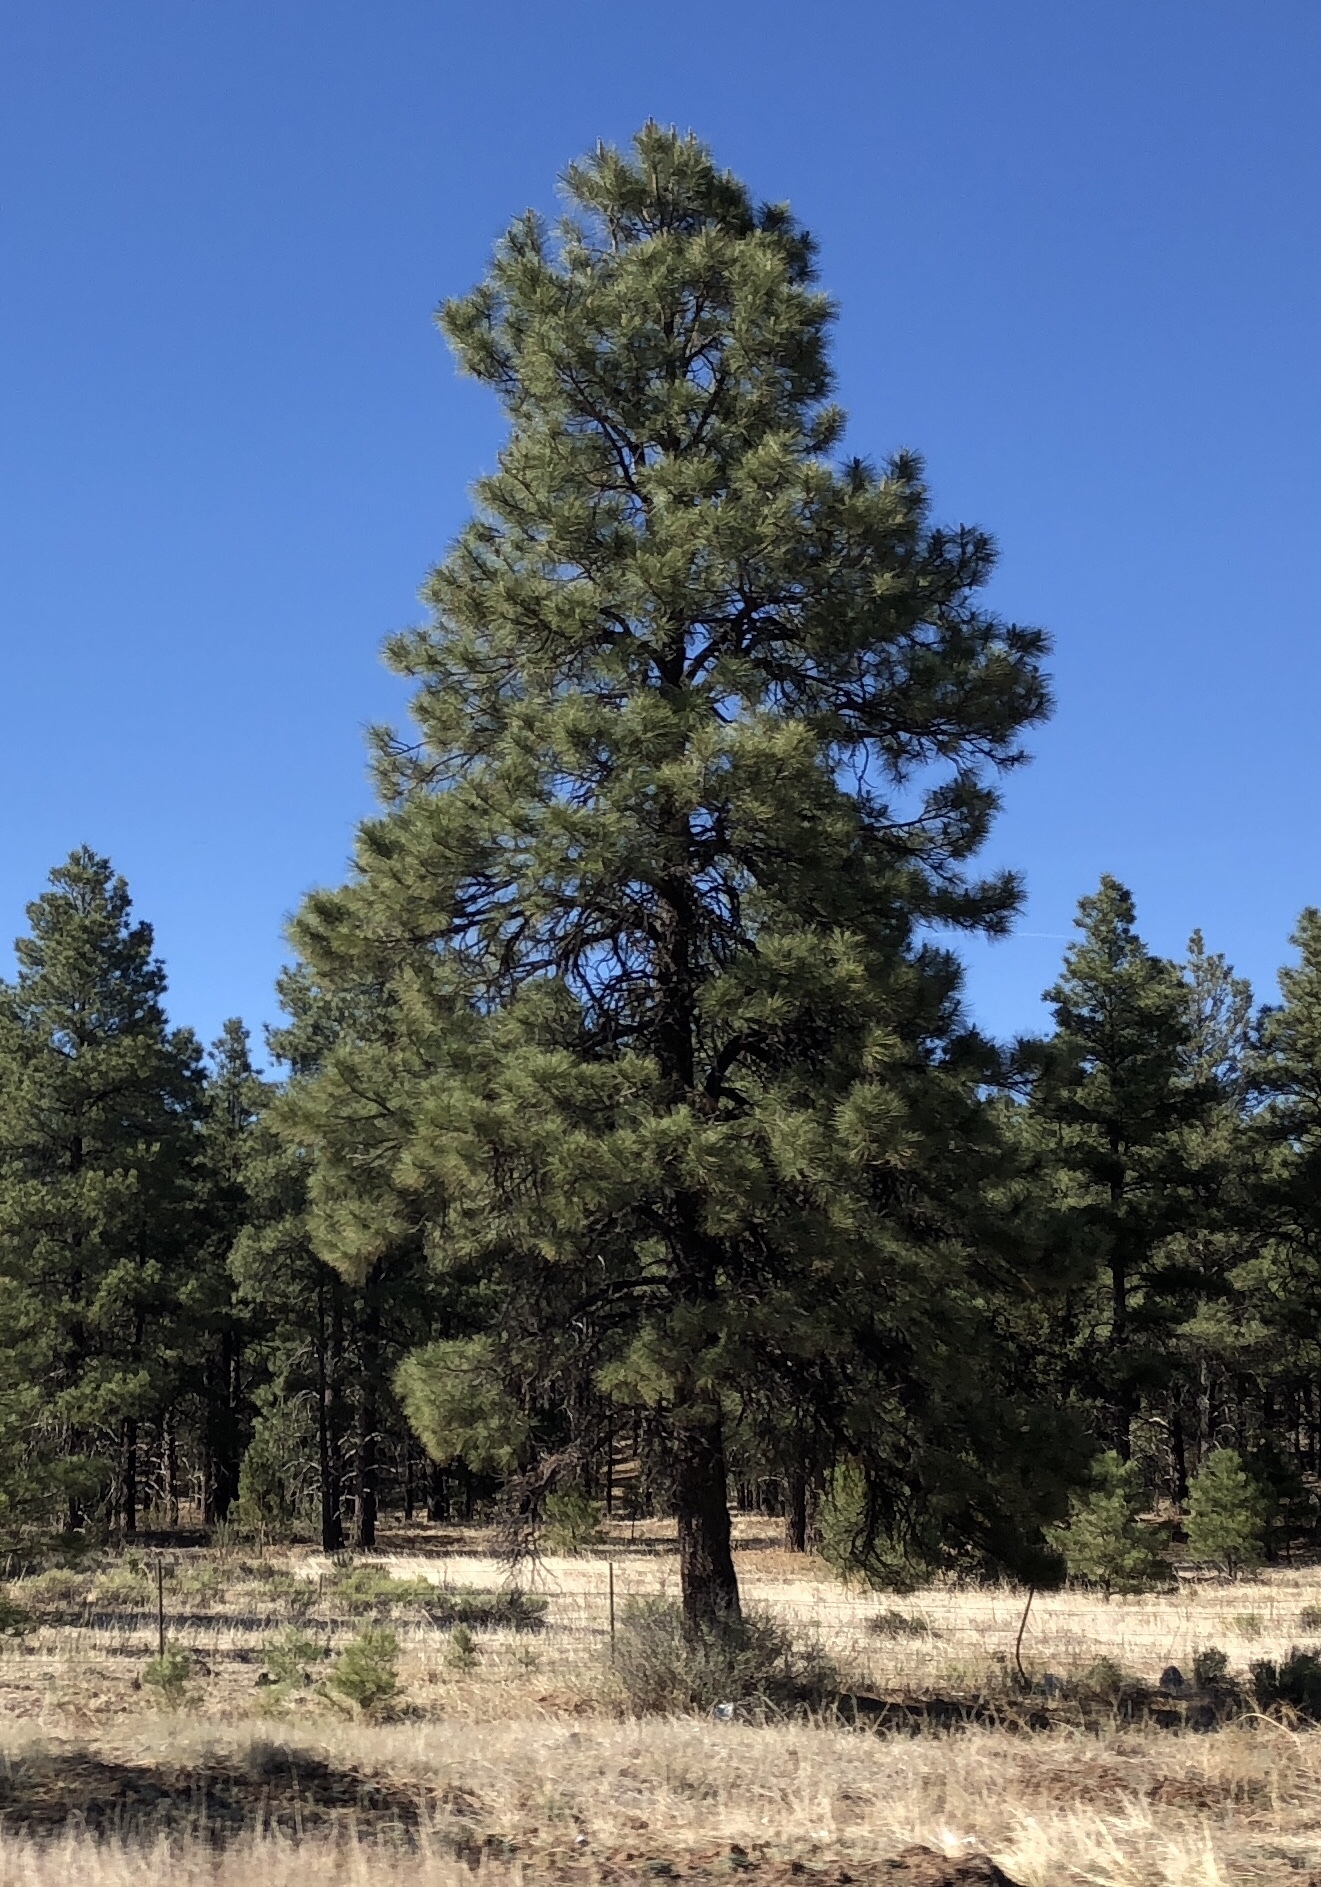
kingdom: Plantae
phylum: Tracheophyta
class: Pinopsida
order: Pinales
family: Pinaceae
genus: Pinus
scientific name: Pinus ponderosa
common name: Western yellow-pine
